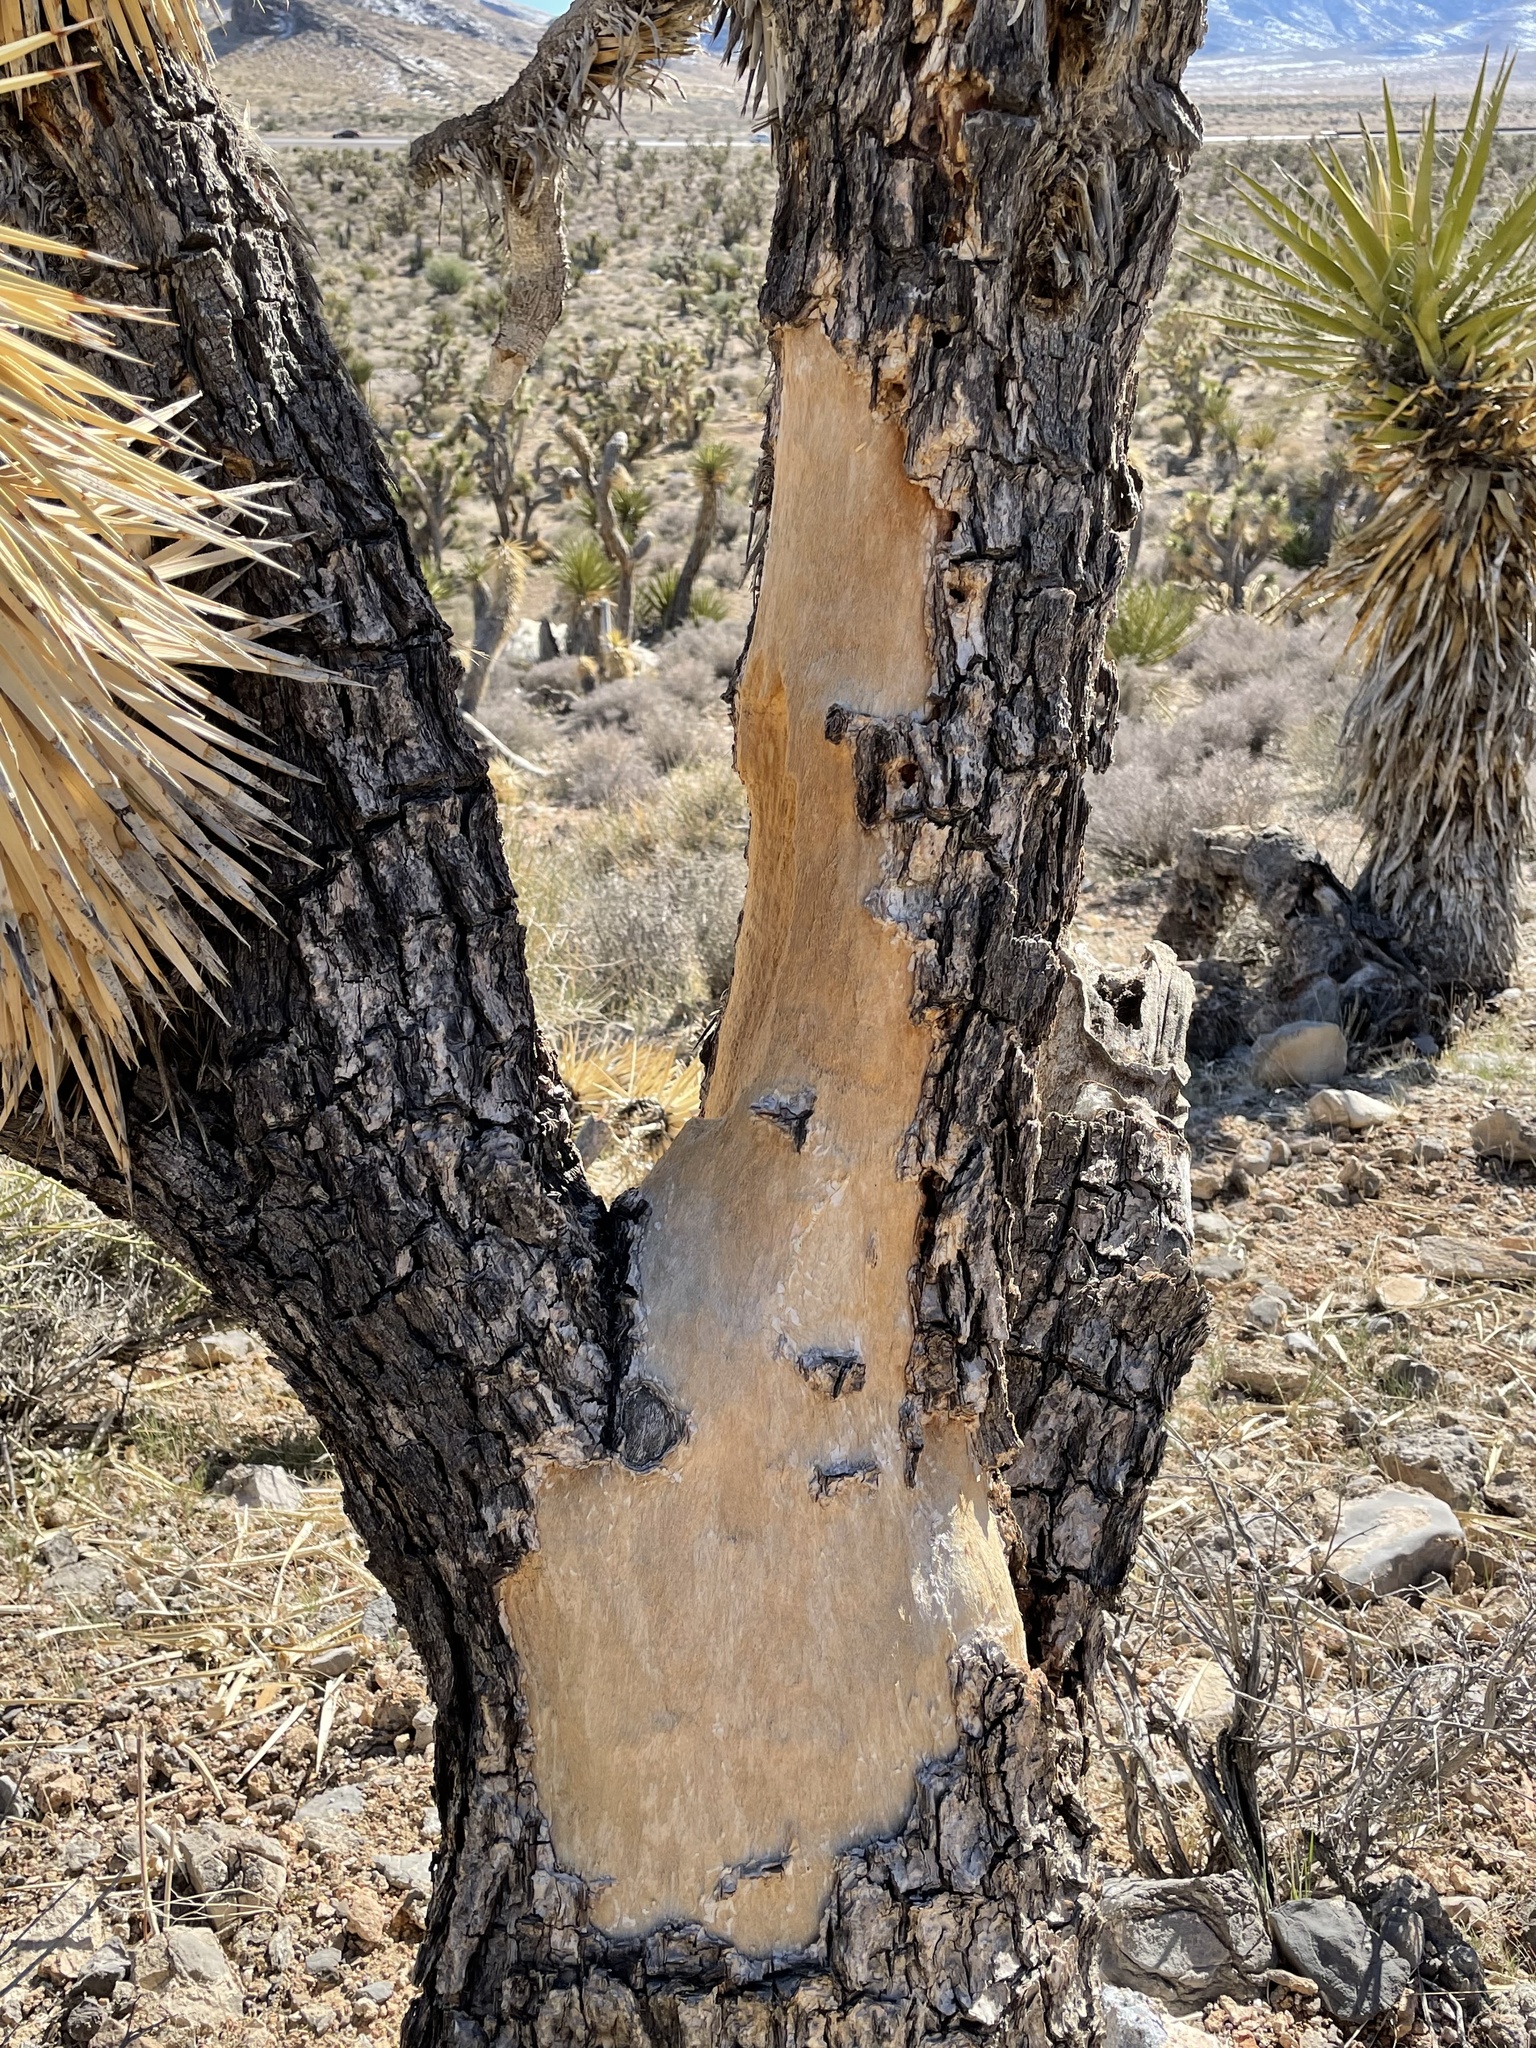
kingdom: Animalia
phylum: Chordata
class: Mammalia
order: Artiodactyla
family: Cervidae
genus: Odocoileus
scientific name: Odocoileus hemionus
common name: Mule deer
